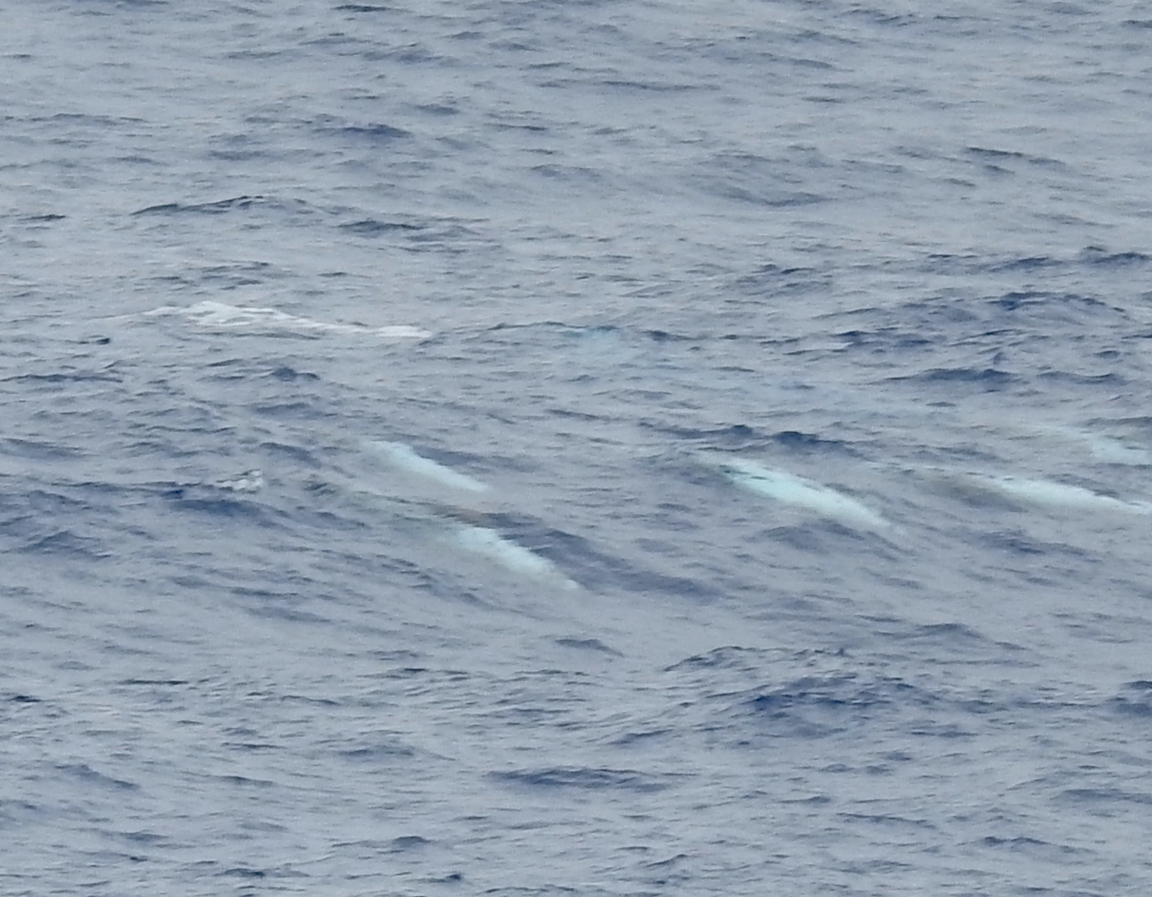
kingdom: Animalia
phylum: Chordata
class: Mammalia
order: Cetacea
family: Delphinidae
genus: Grampus
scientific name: Grampus griseus
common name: Risso's dolphin
